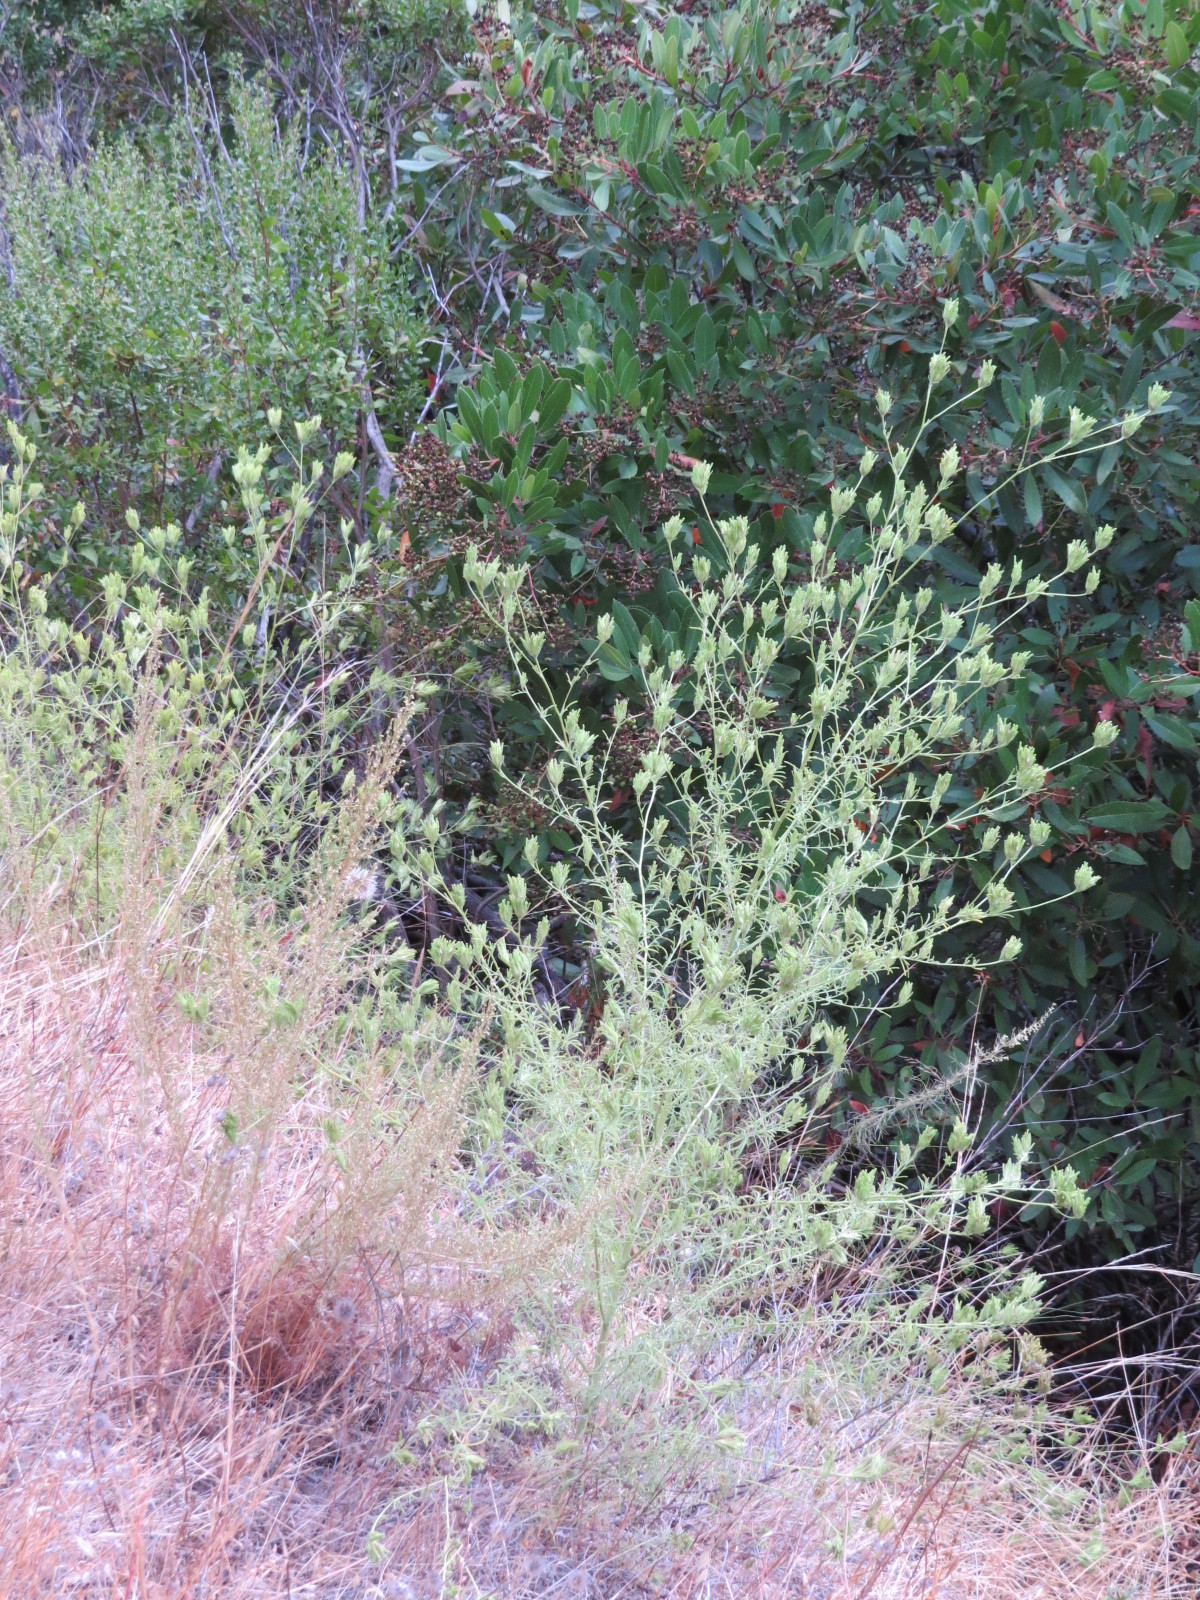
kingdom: Plantae
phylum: Tracheophyta
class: Magnoliopsida
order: Lamiales
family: Orobanchaceae
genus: Cordylanthus
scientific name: Cordylanthus rigidus
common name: Stiff-branch bird's-beak
